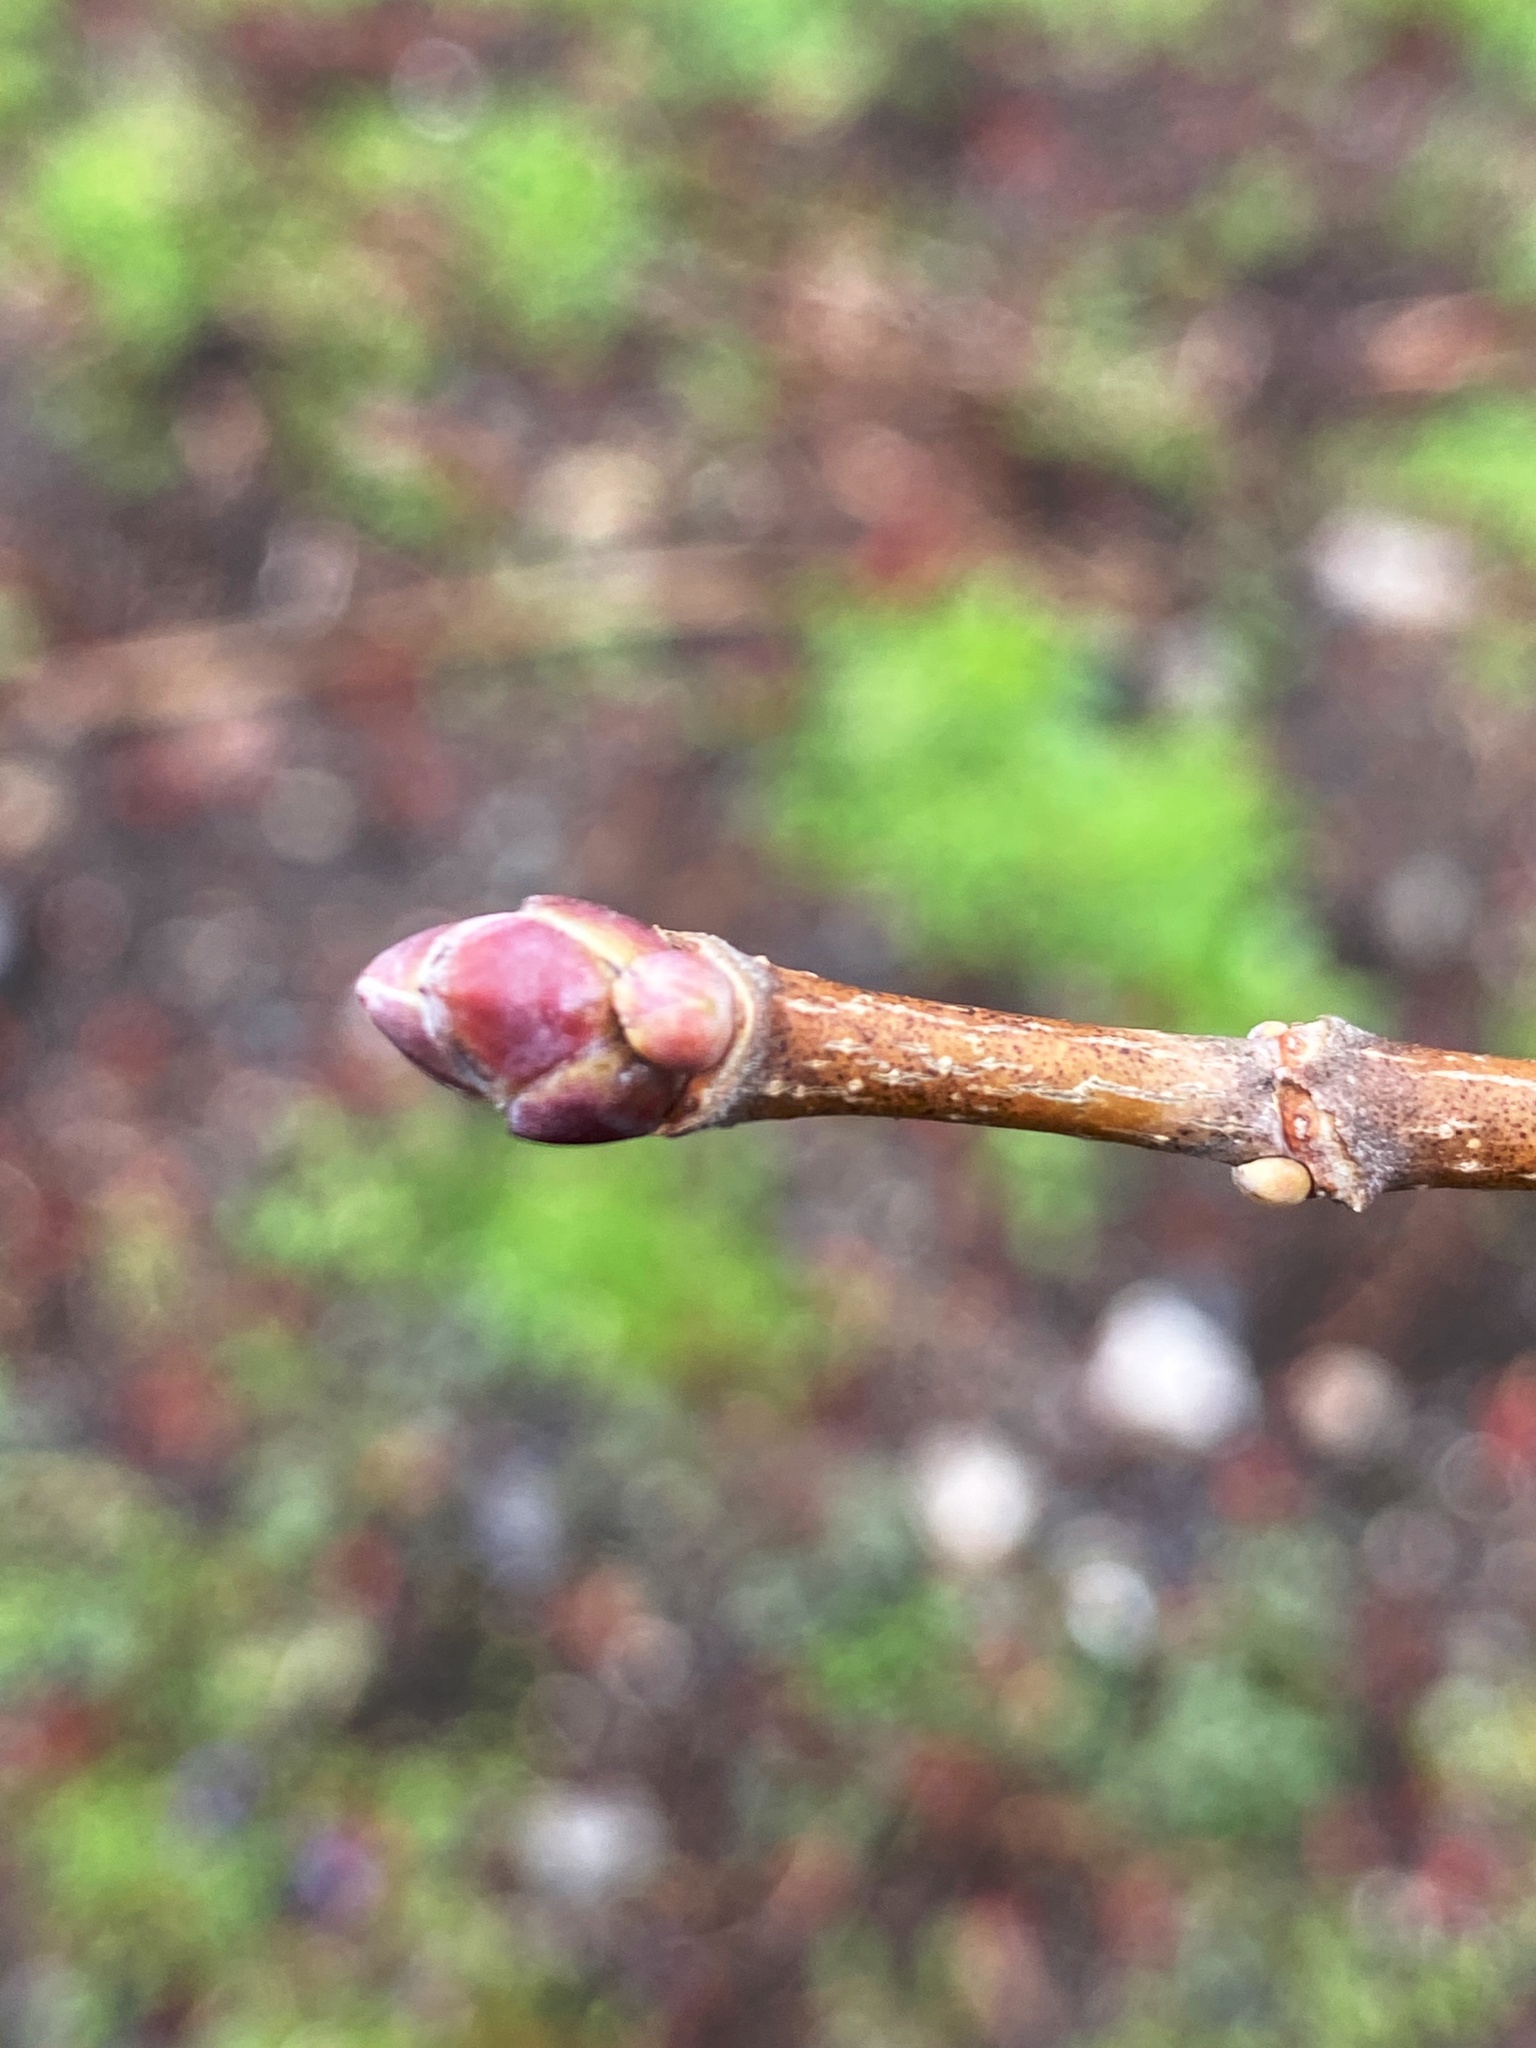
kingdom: Plantae
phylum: Tracheophyta
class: Magnoliopsida
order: Sapindales
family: Sapindaceae
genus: Acer
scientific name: Acer platanoides
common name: Norway maple
